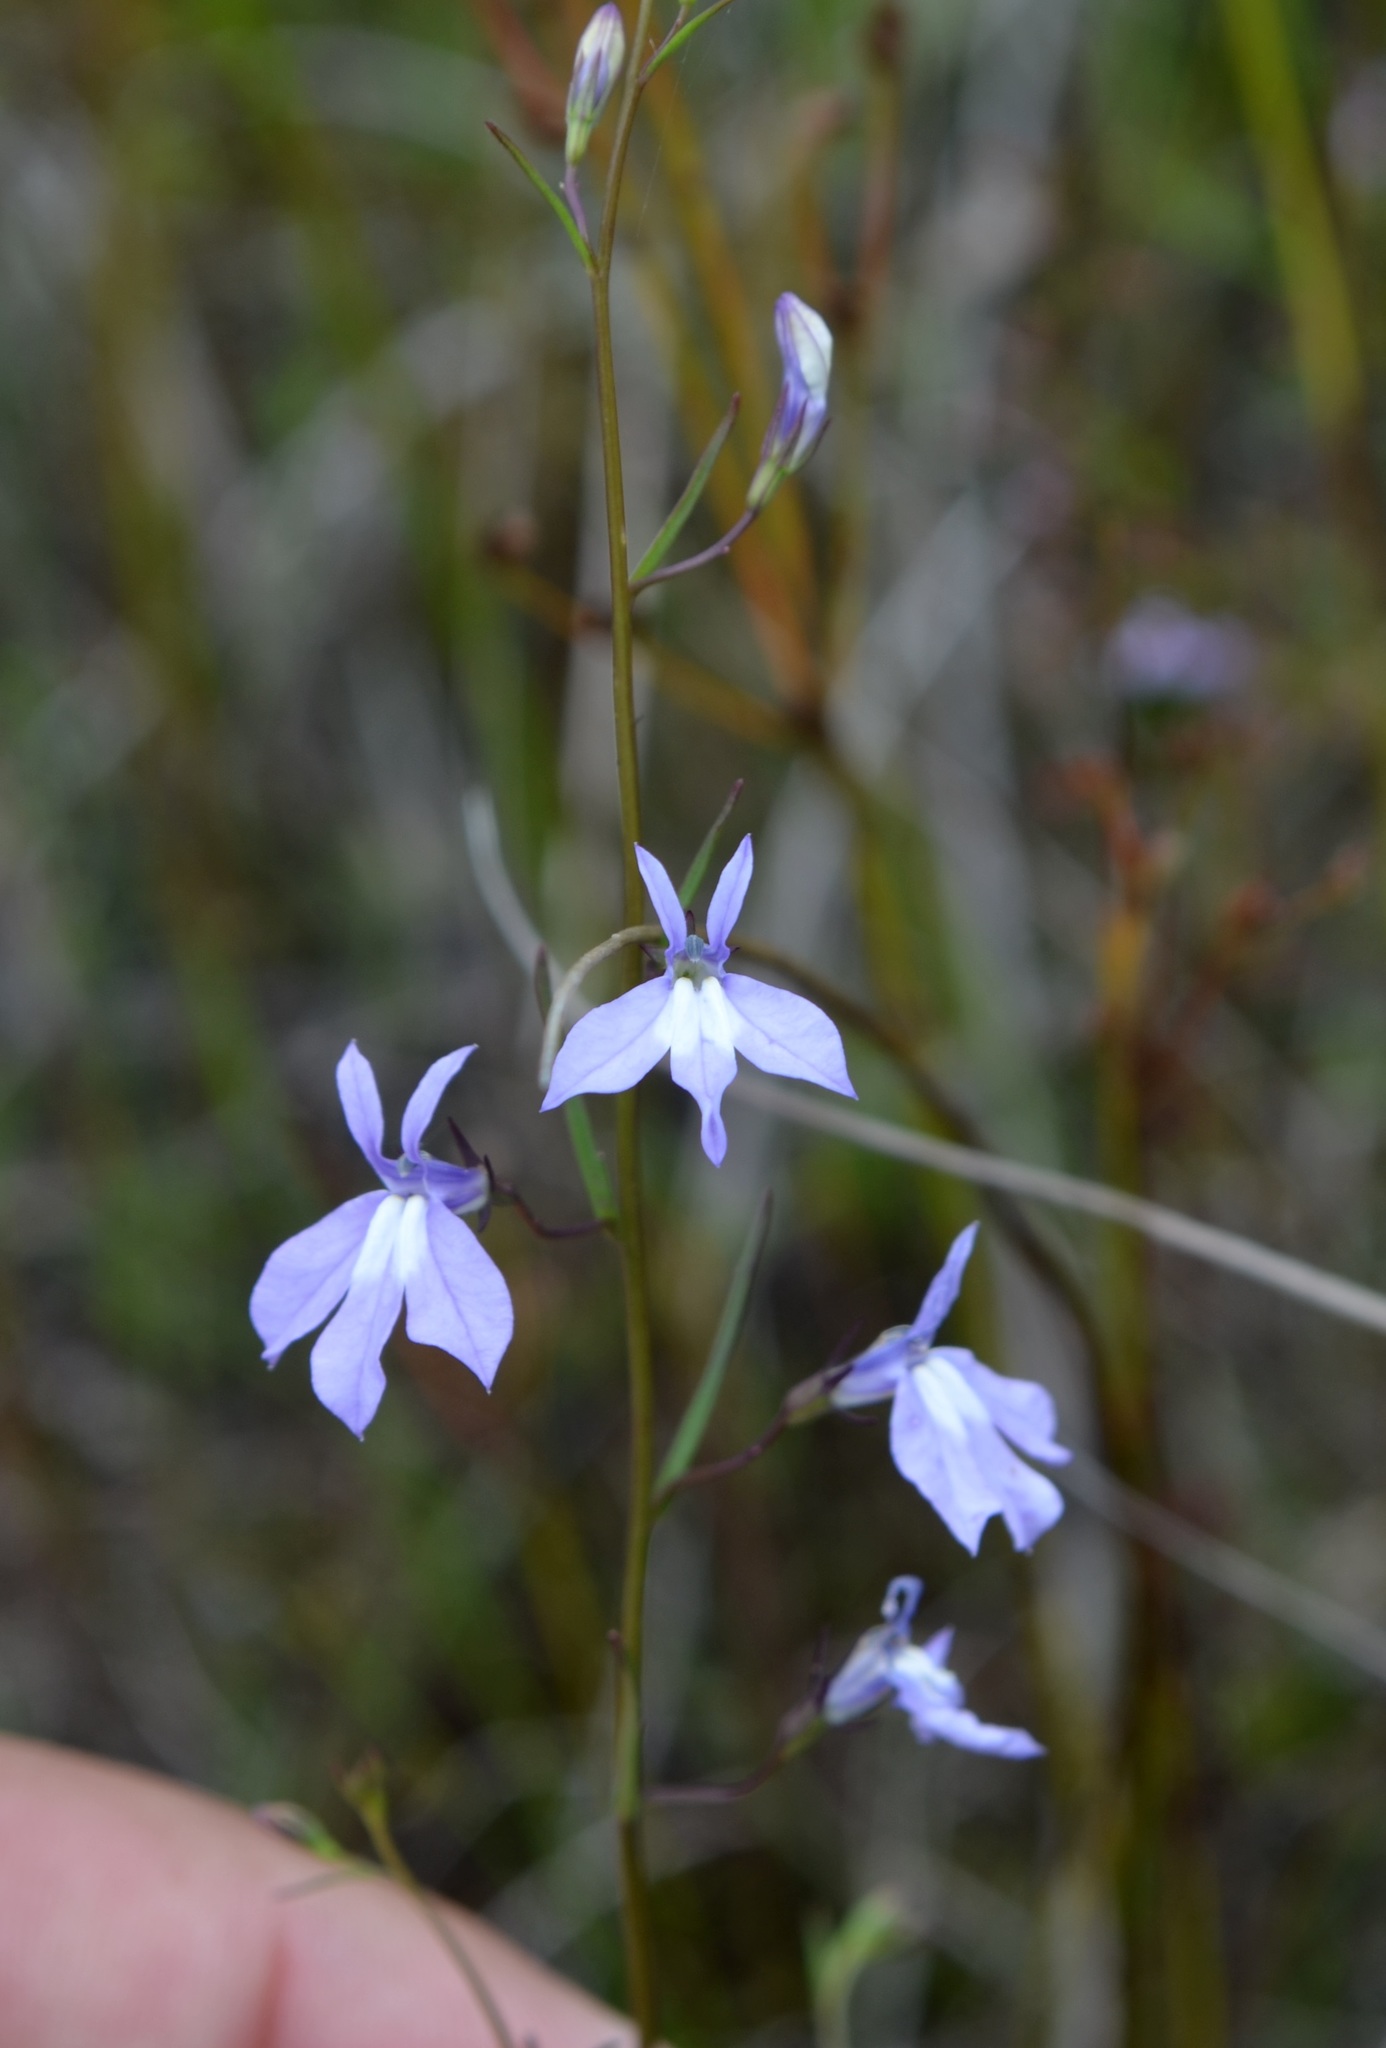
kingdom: Plantae
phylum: Tracheophyta
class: Magnoliopsida
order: Asterales
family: Campanulaceae
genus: Lobelia
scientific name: Lobelia kalmii
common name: Kalm's lobelia
